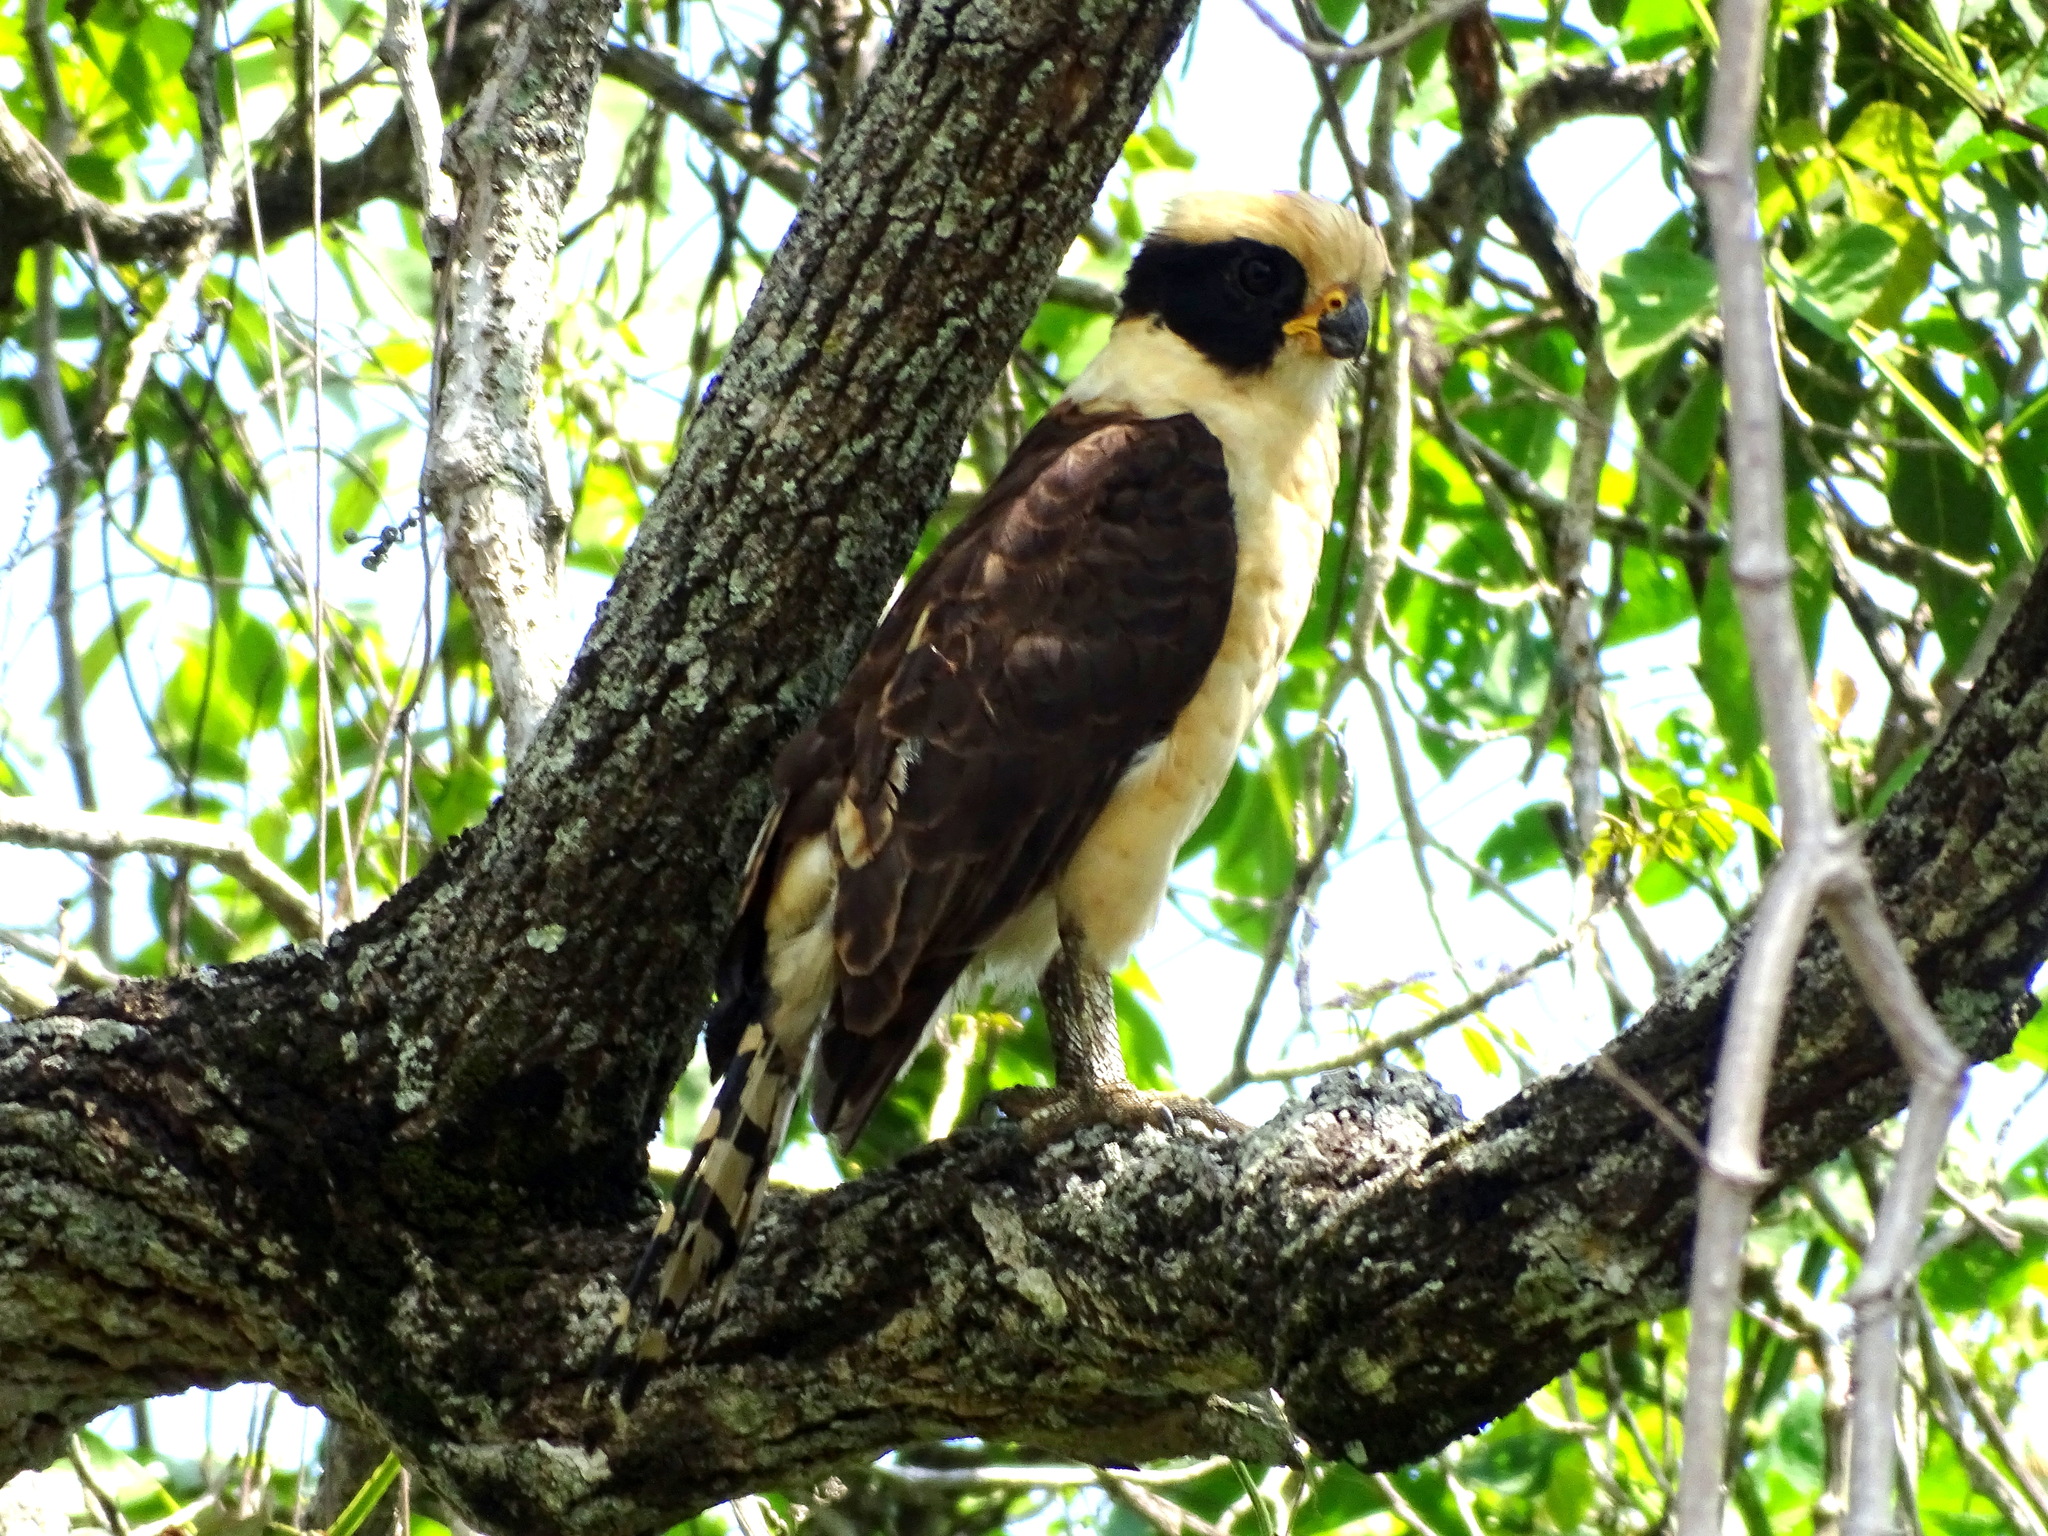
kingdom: Animalia
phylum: Chordata
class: Aves
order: Falconiformes
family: Falconidae
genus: Herpetotheres
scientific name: Herpetotheres cachinnans
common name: Laughing falcon
